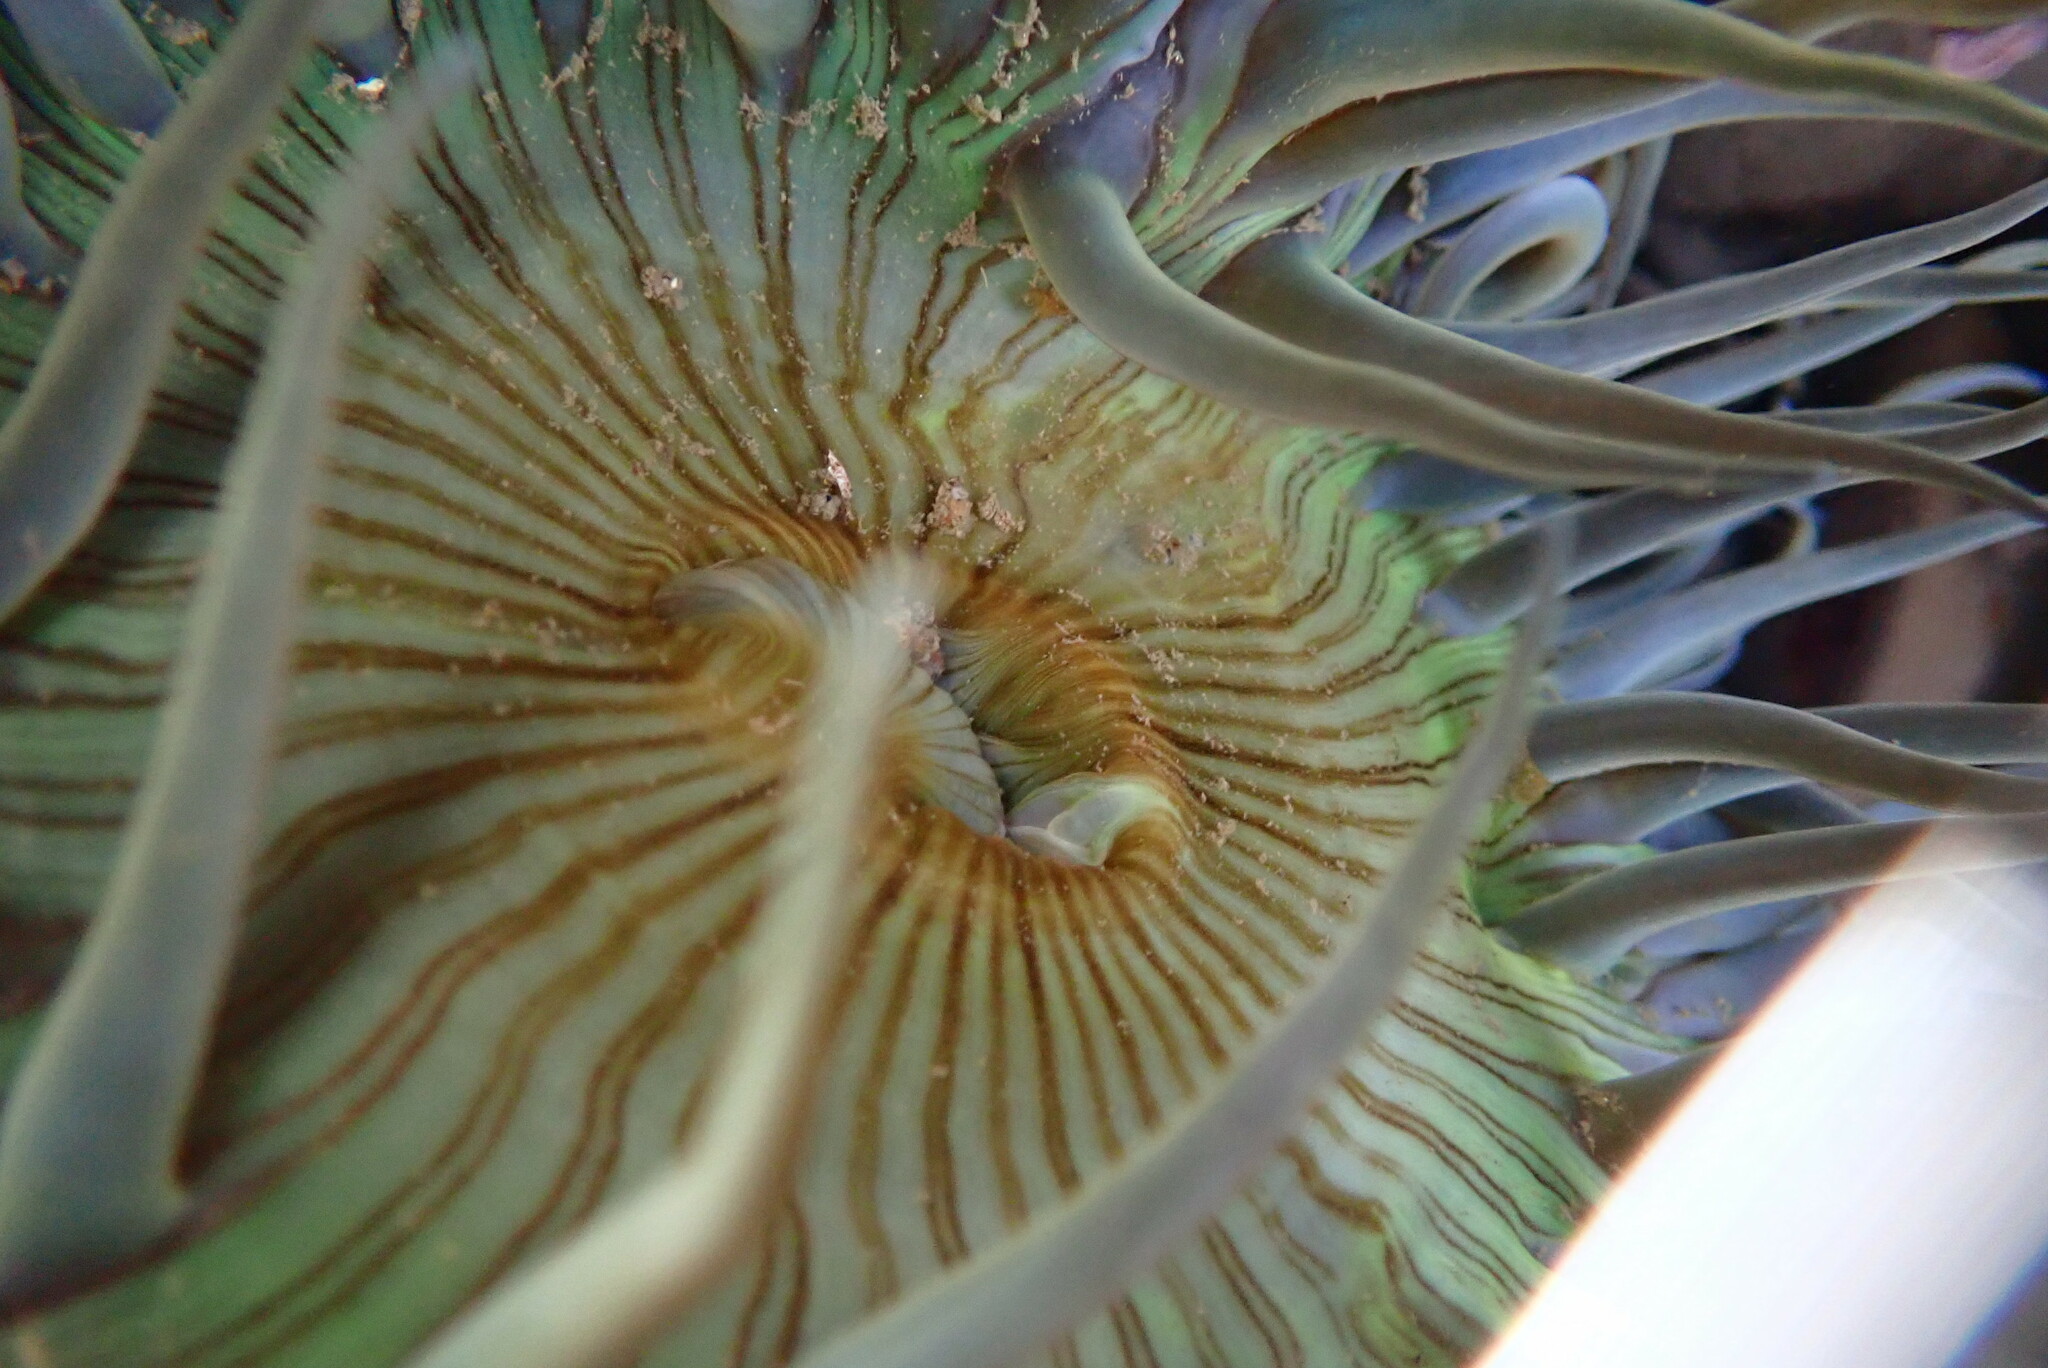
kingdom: Animalia
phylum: Cnidaria
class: Anthozoa
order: Actiniaria
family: Actiniidae
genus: Anthopleura
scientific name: Anthopleura sola
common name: Sun anemone
